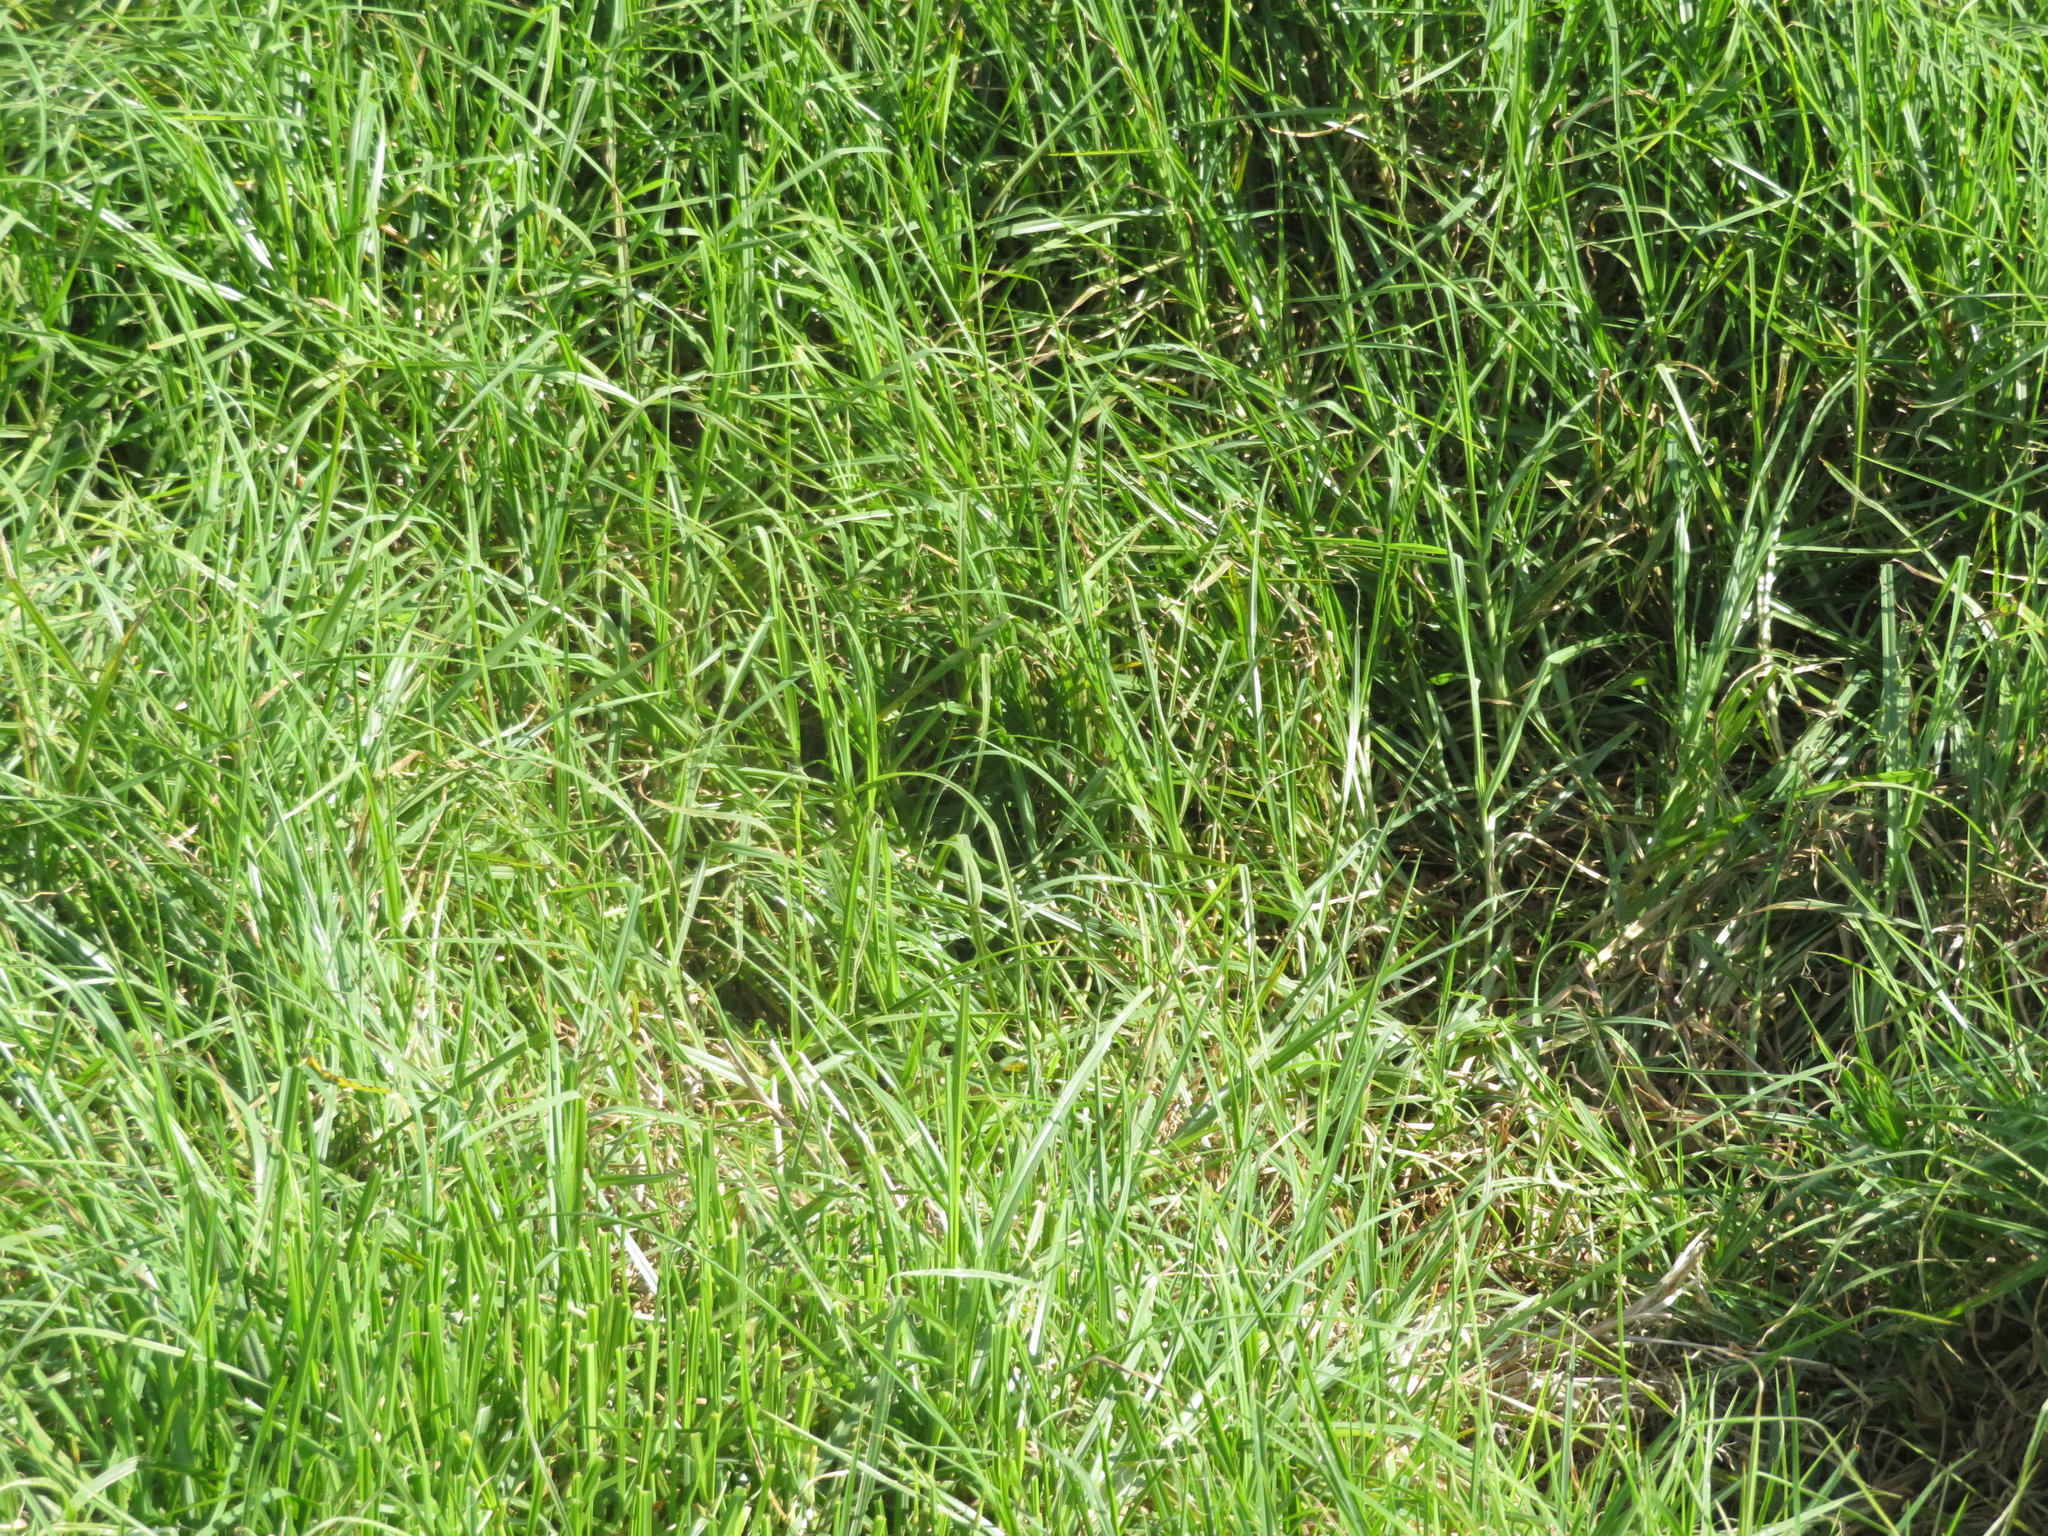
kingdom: Plantae
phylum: Tracheophyta
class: Liliopsida
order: Poales
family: Poaceae
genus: Cenchrus
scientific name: Cenchrus clandestinus
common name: Kikuyugrass
